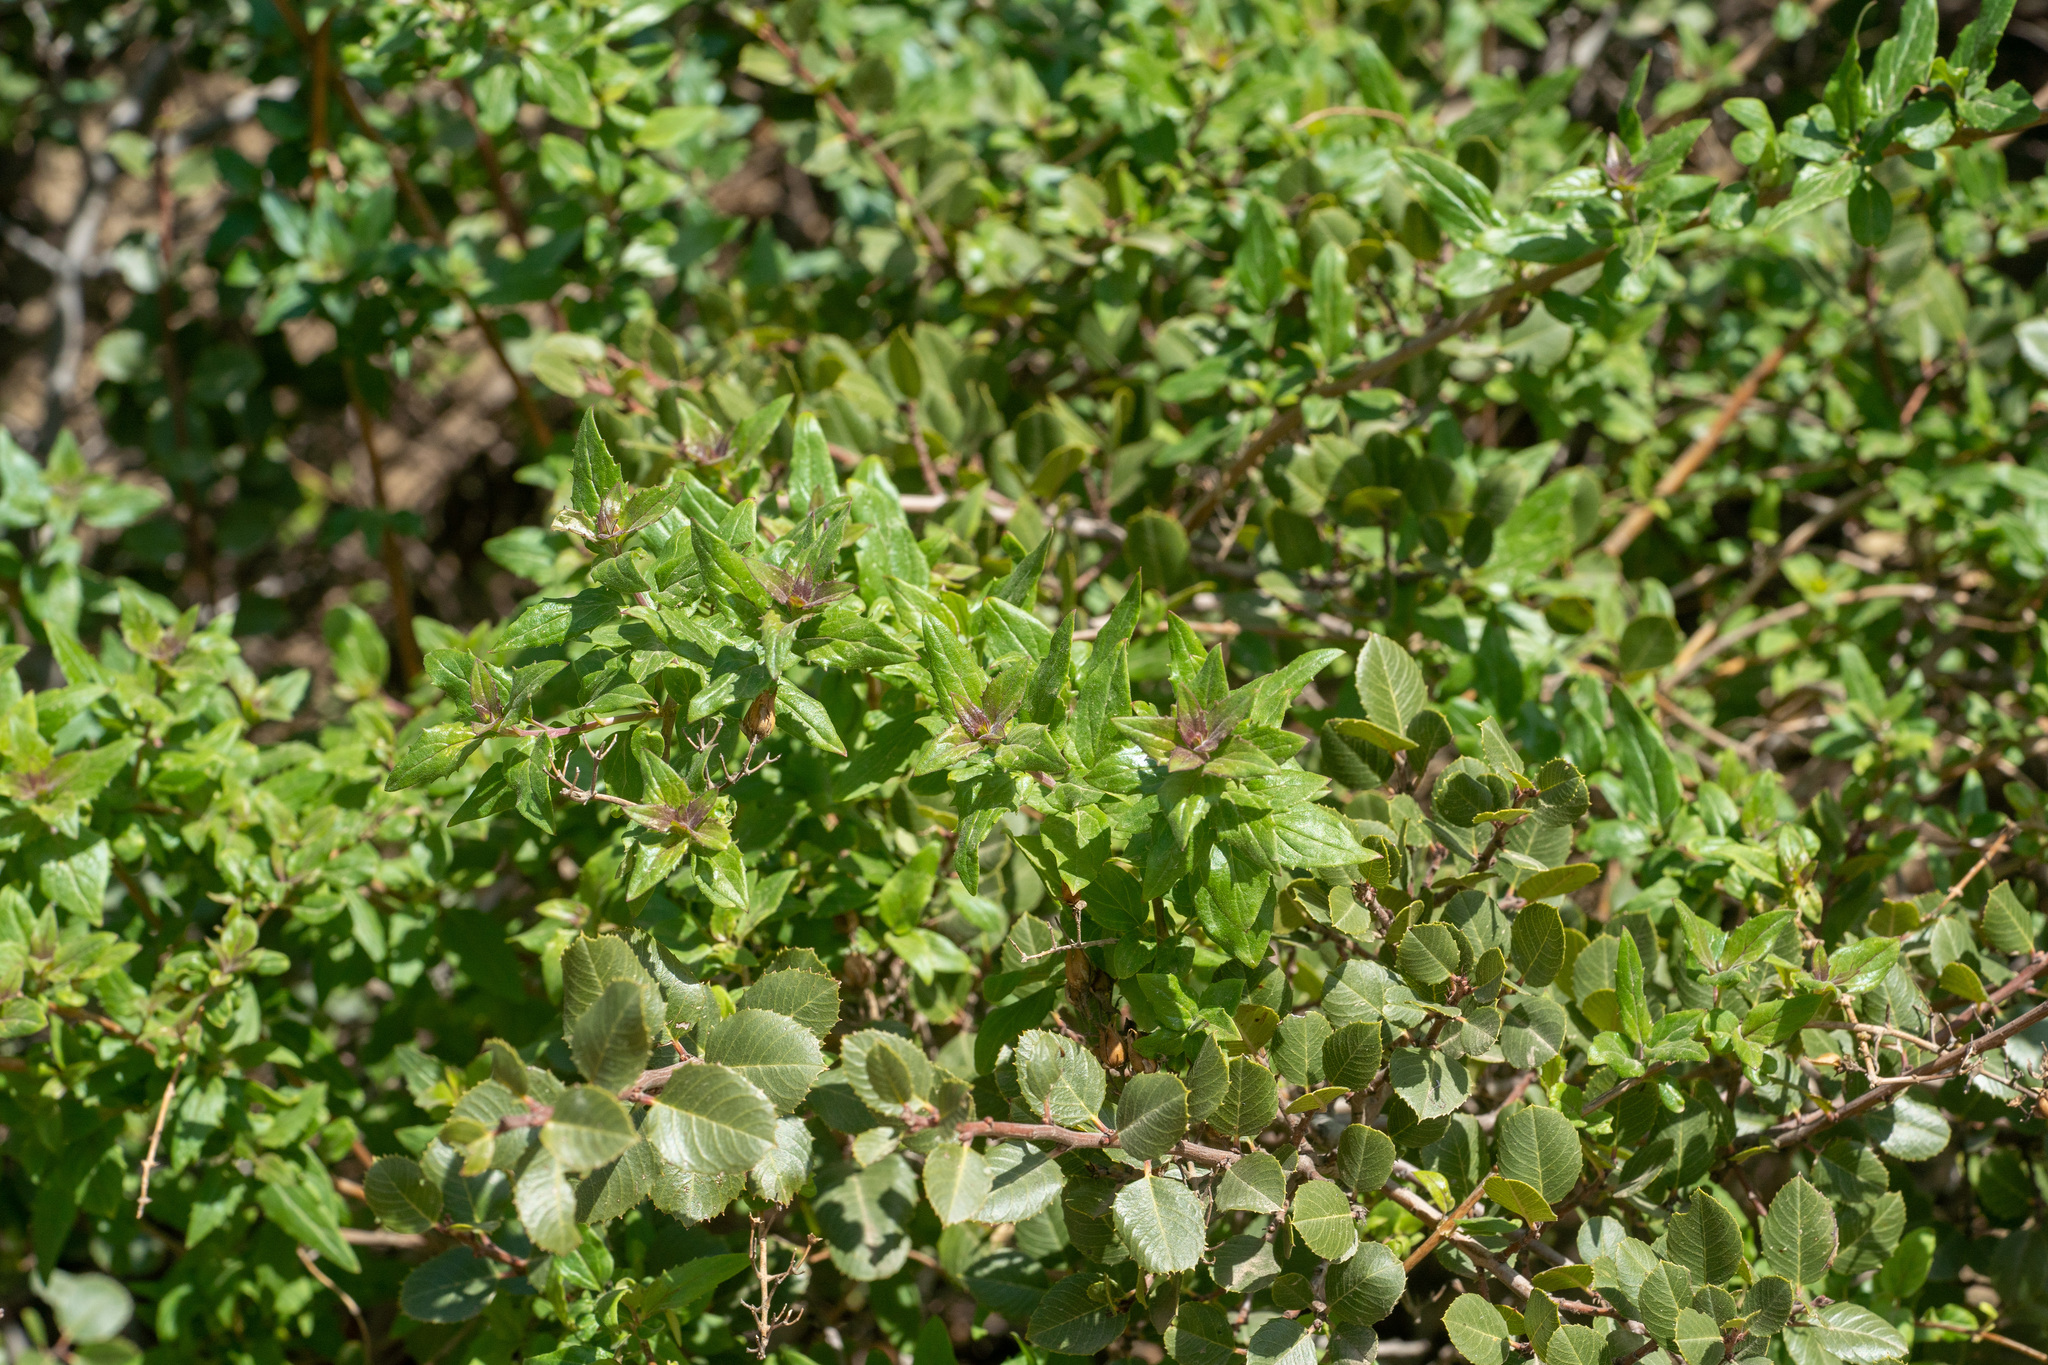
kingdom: Plantae
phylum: Tracheophyta
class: Magnoliopsida
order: Lamiales
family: Plantaginaceae
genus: Keckiella
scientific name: Keckiella cordifolia
